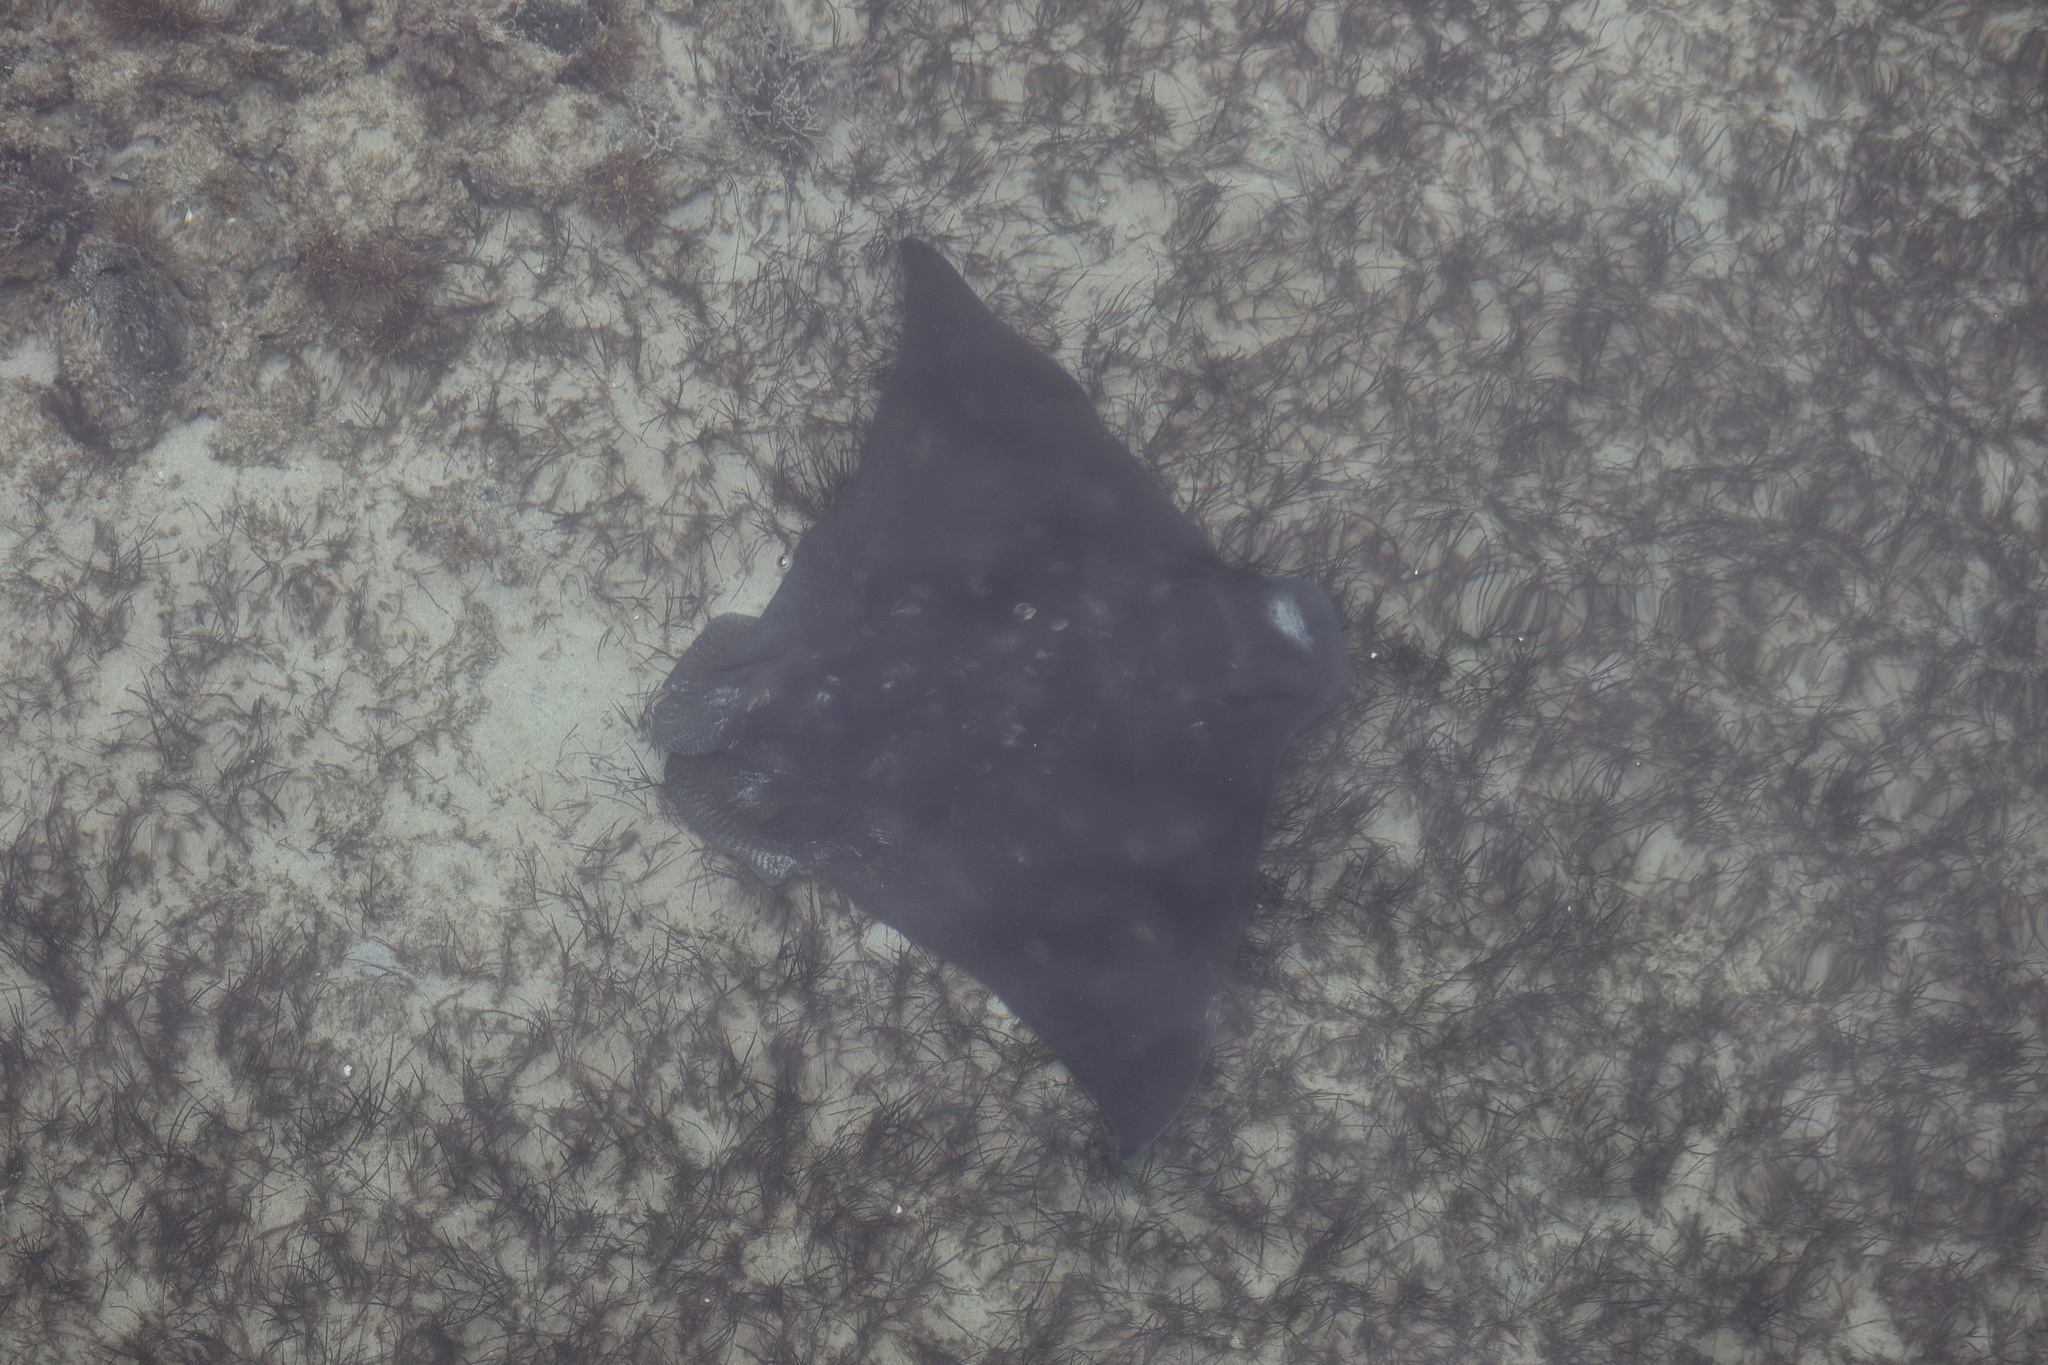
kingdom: Animalia
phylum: Chordata
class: Elasmobranchii
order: Myliobatiformes
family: Myliobatidae
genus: Myliobatis
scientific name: Myliobatis tenuicaudatus
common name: Eagle ray
